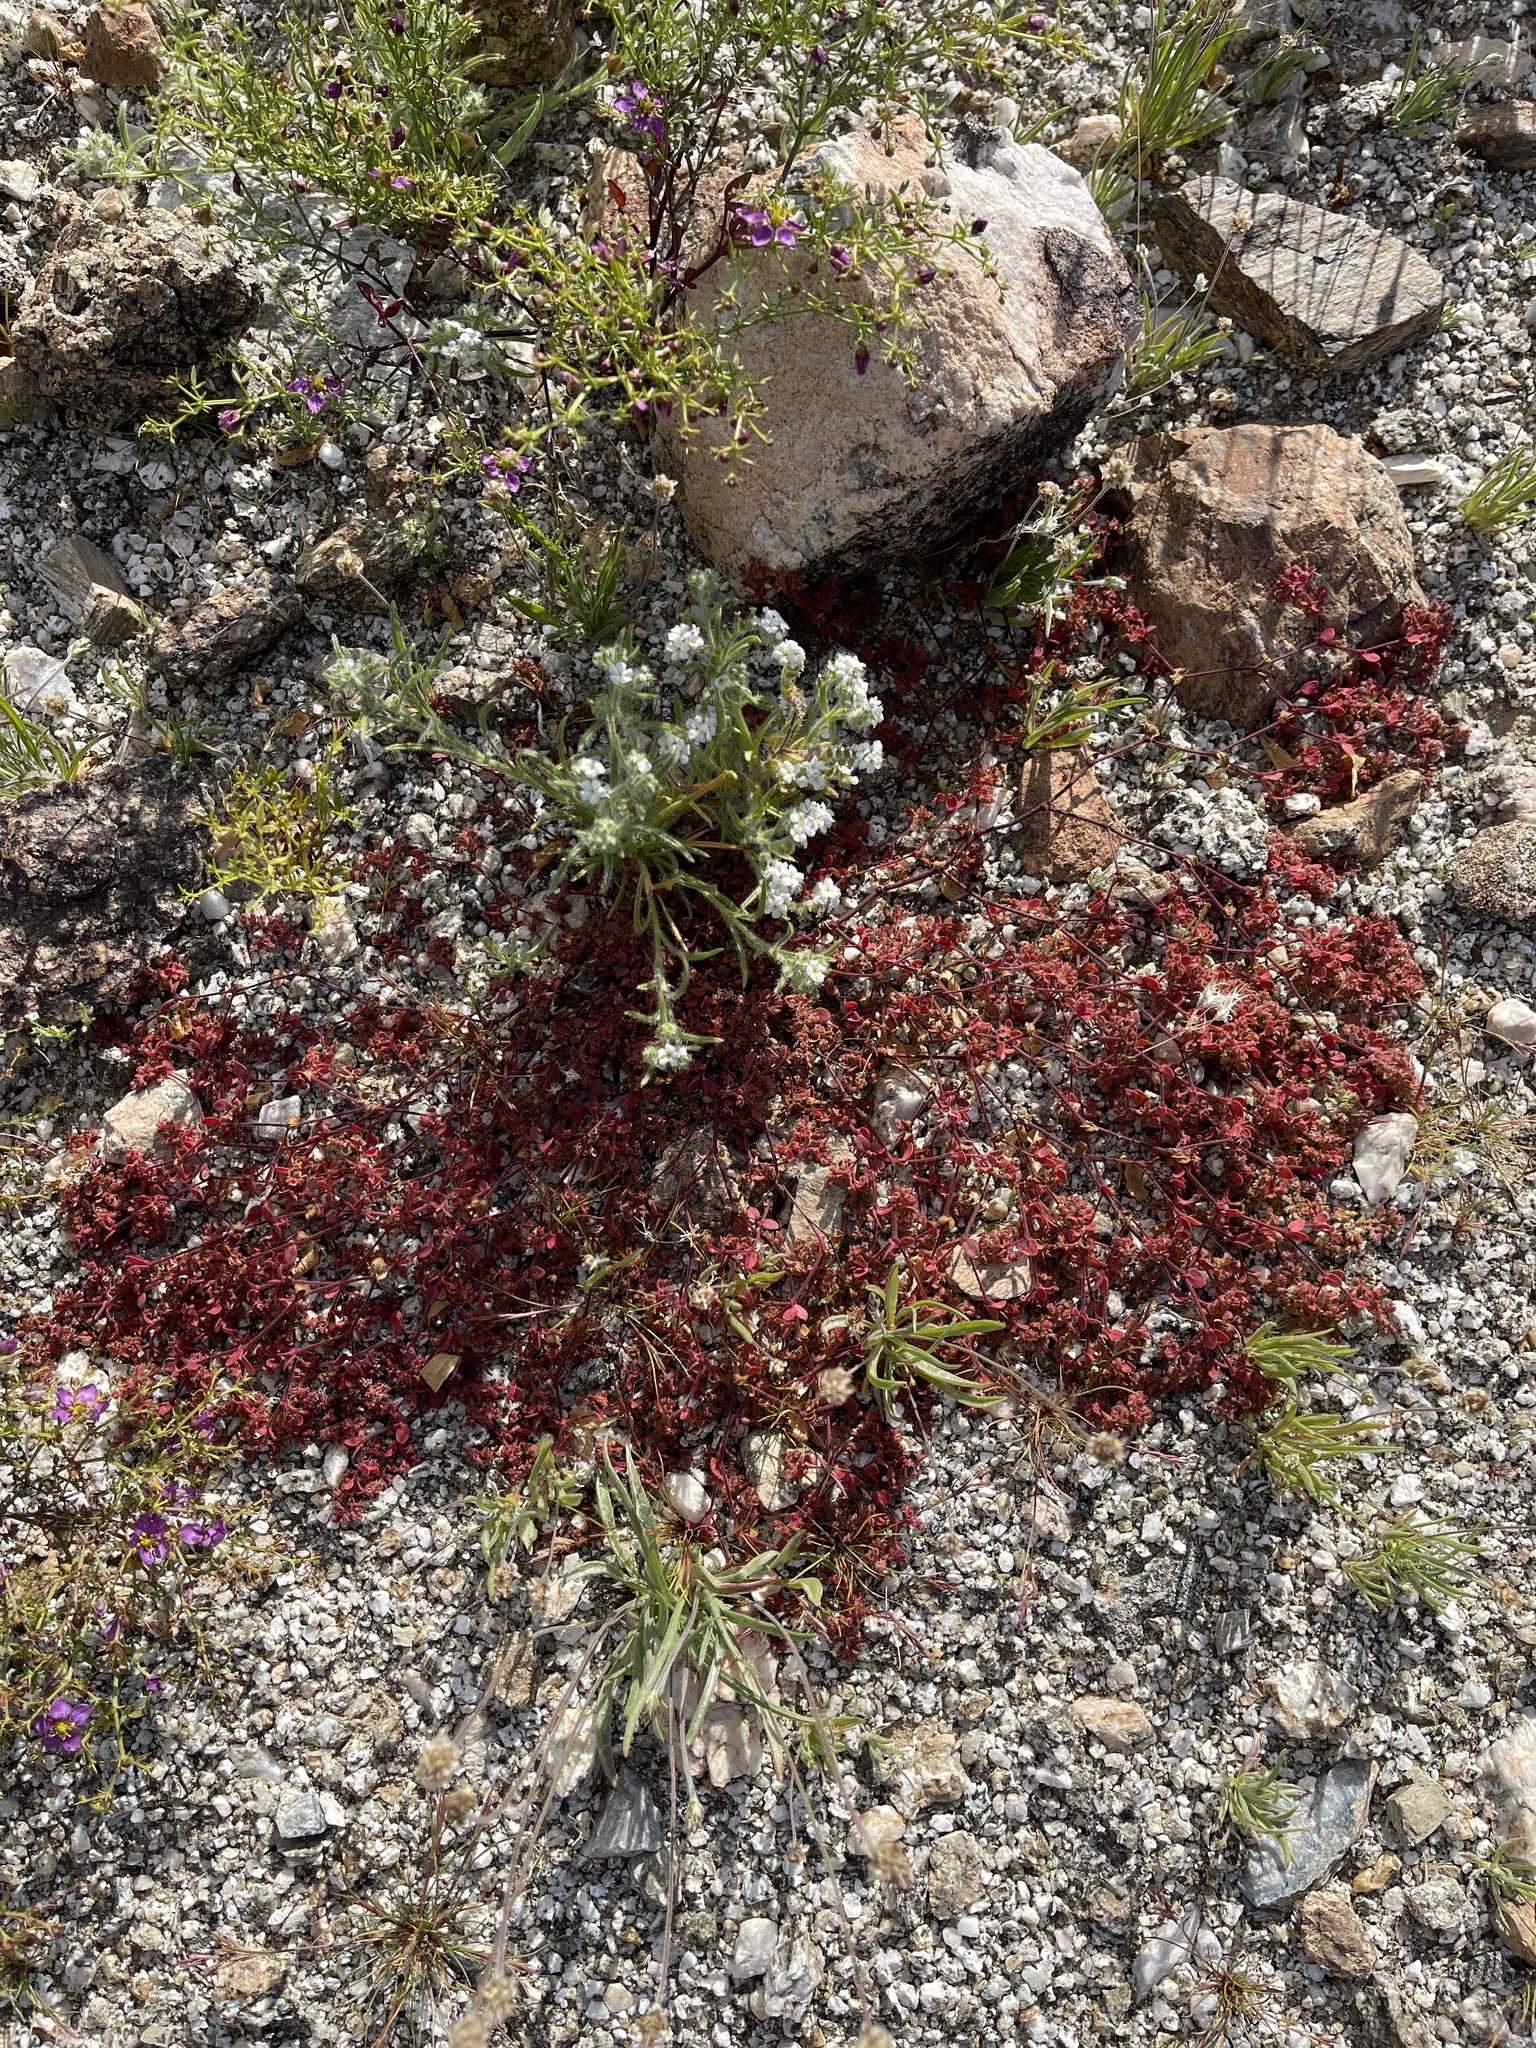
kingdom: Plantae
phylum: Tracheophyta
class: Magnoliopsida
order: Malpighiales
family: Euphorbiaceae
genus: Euphorbia
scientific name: Euphorbia setiloba
